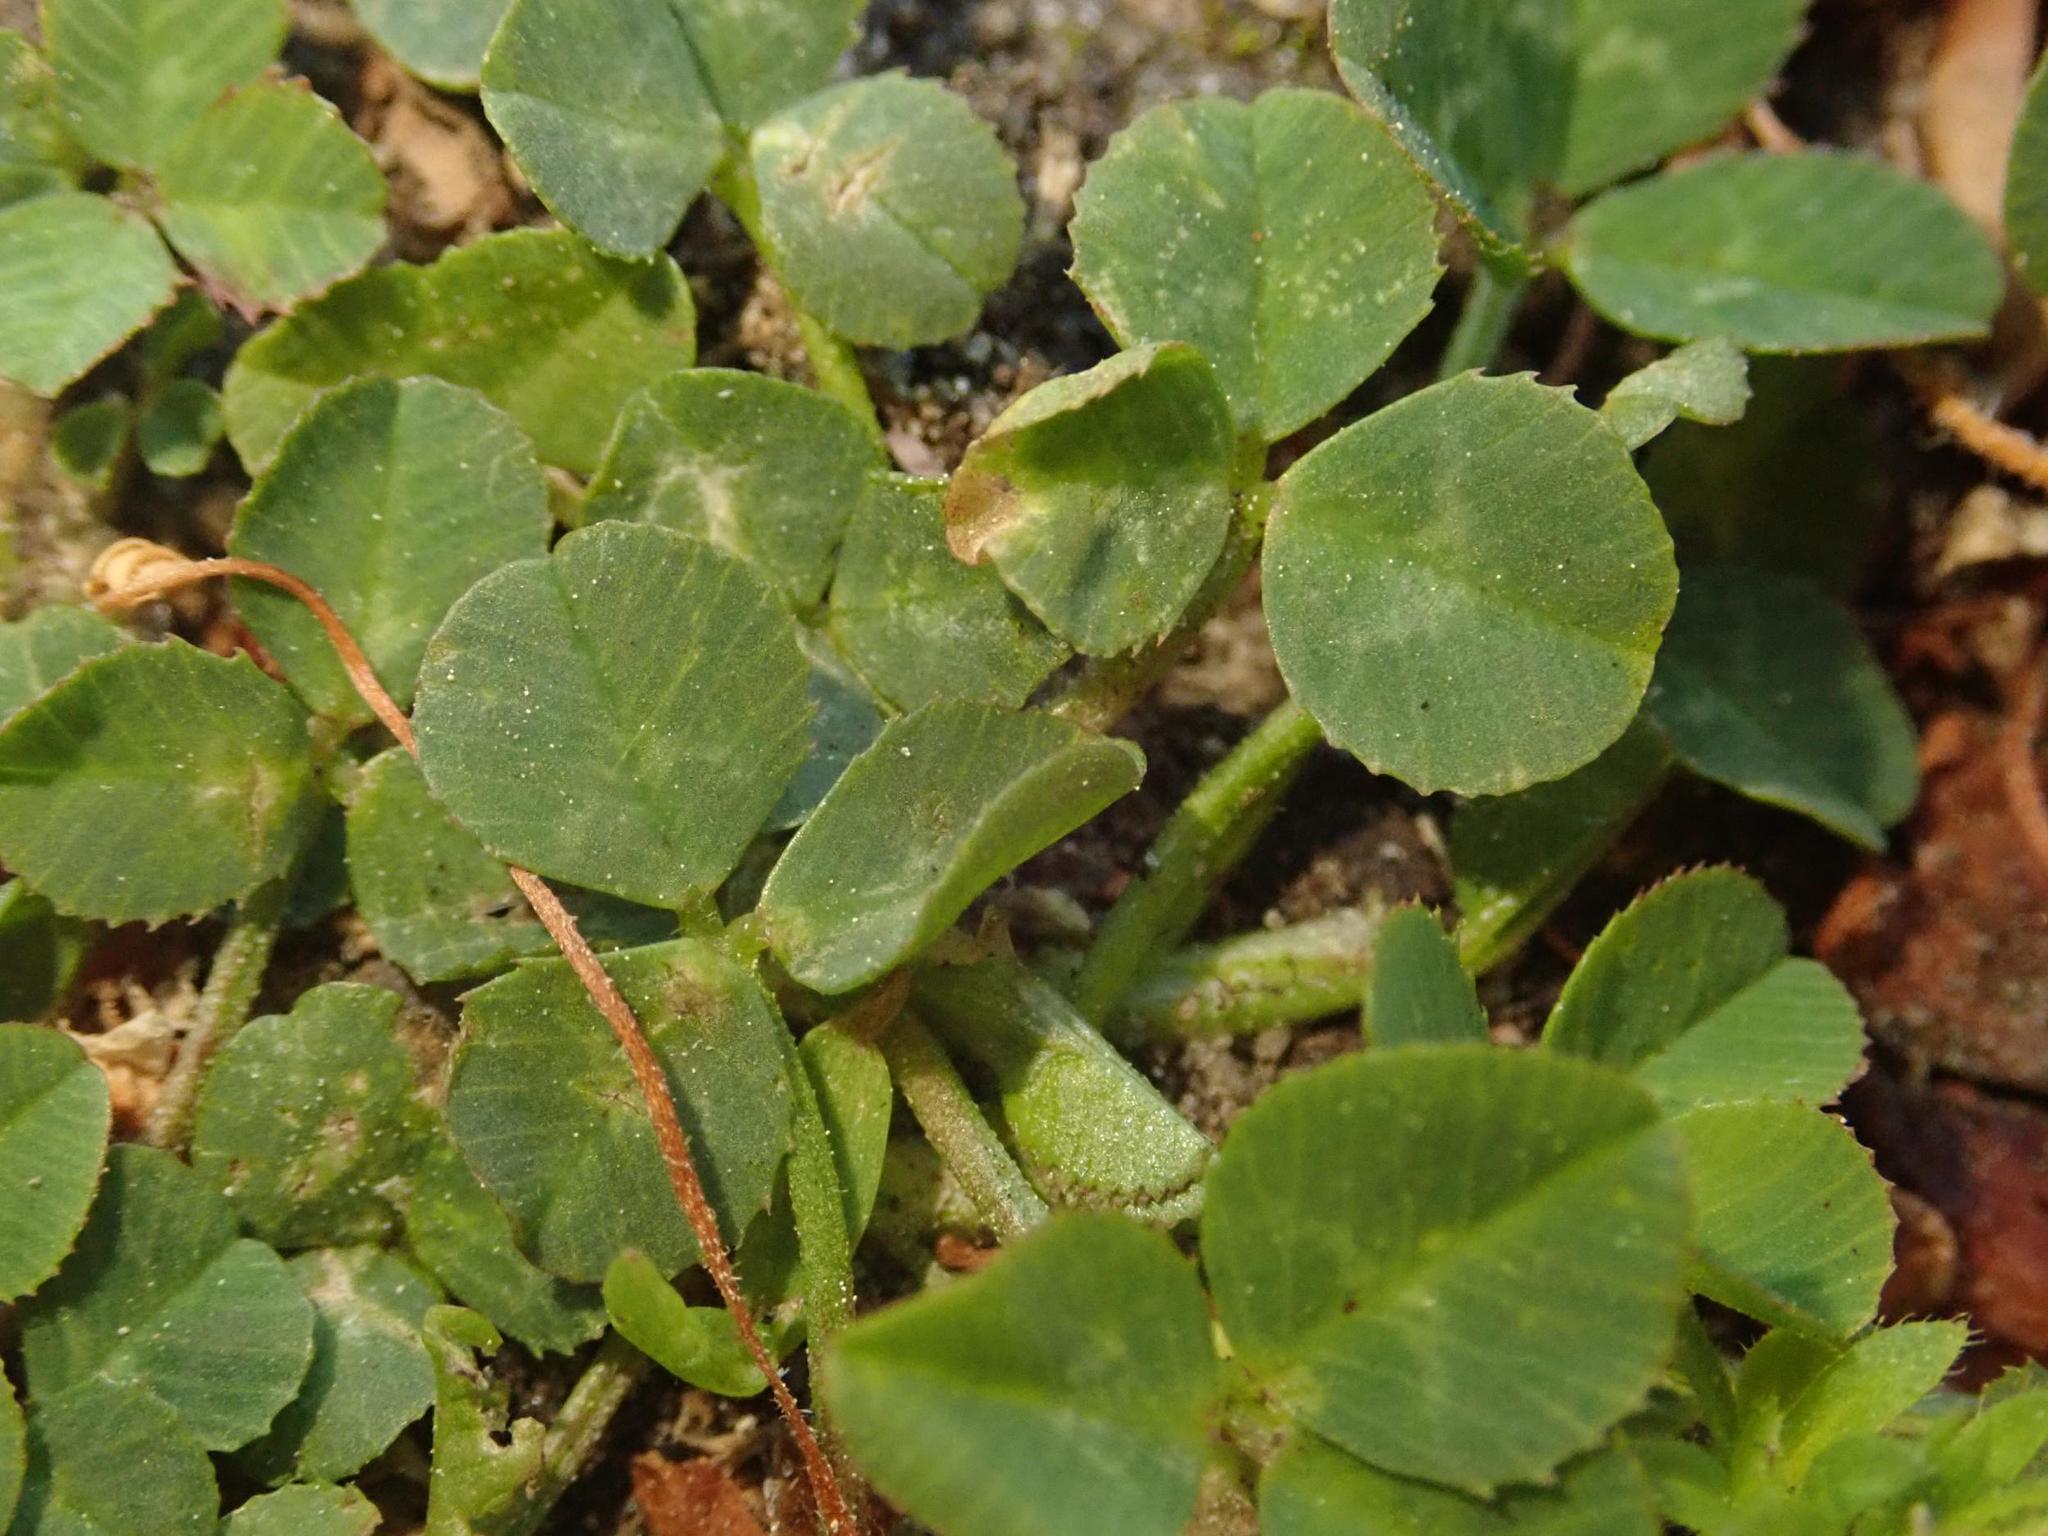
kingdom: Plantae
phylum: Tracheophyta
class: Magnoliopsida
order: Fabales
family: Fabaceae
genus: Trifolium
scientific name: Trifolium repens
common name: White clover
